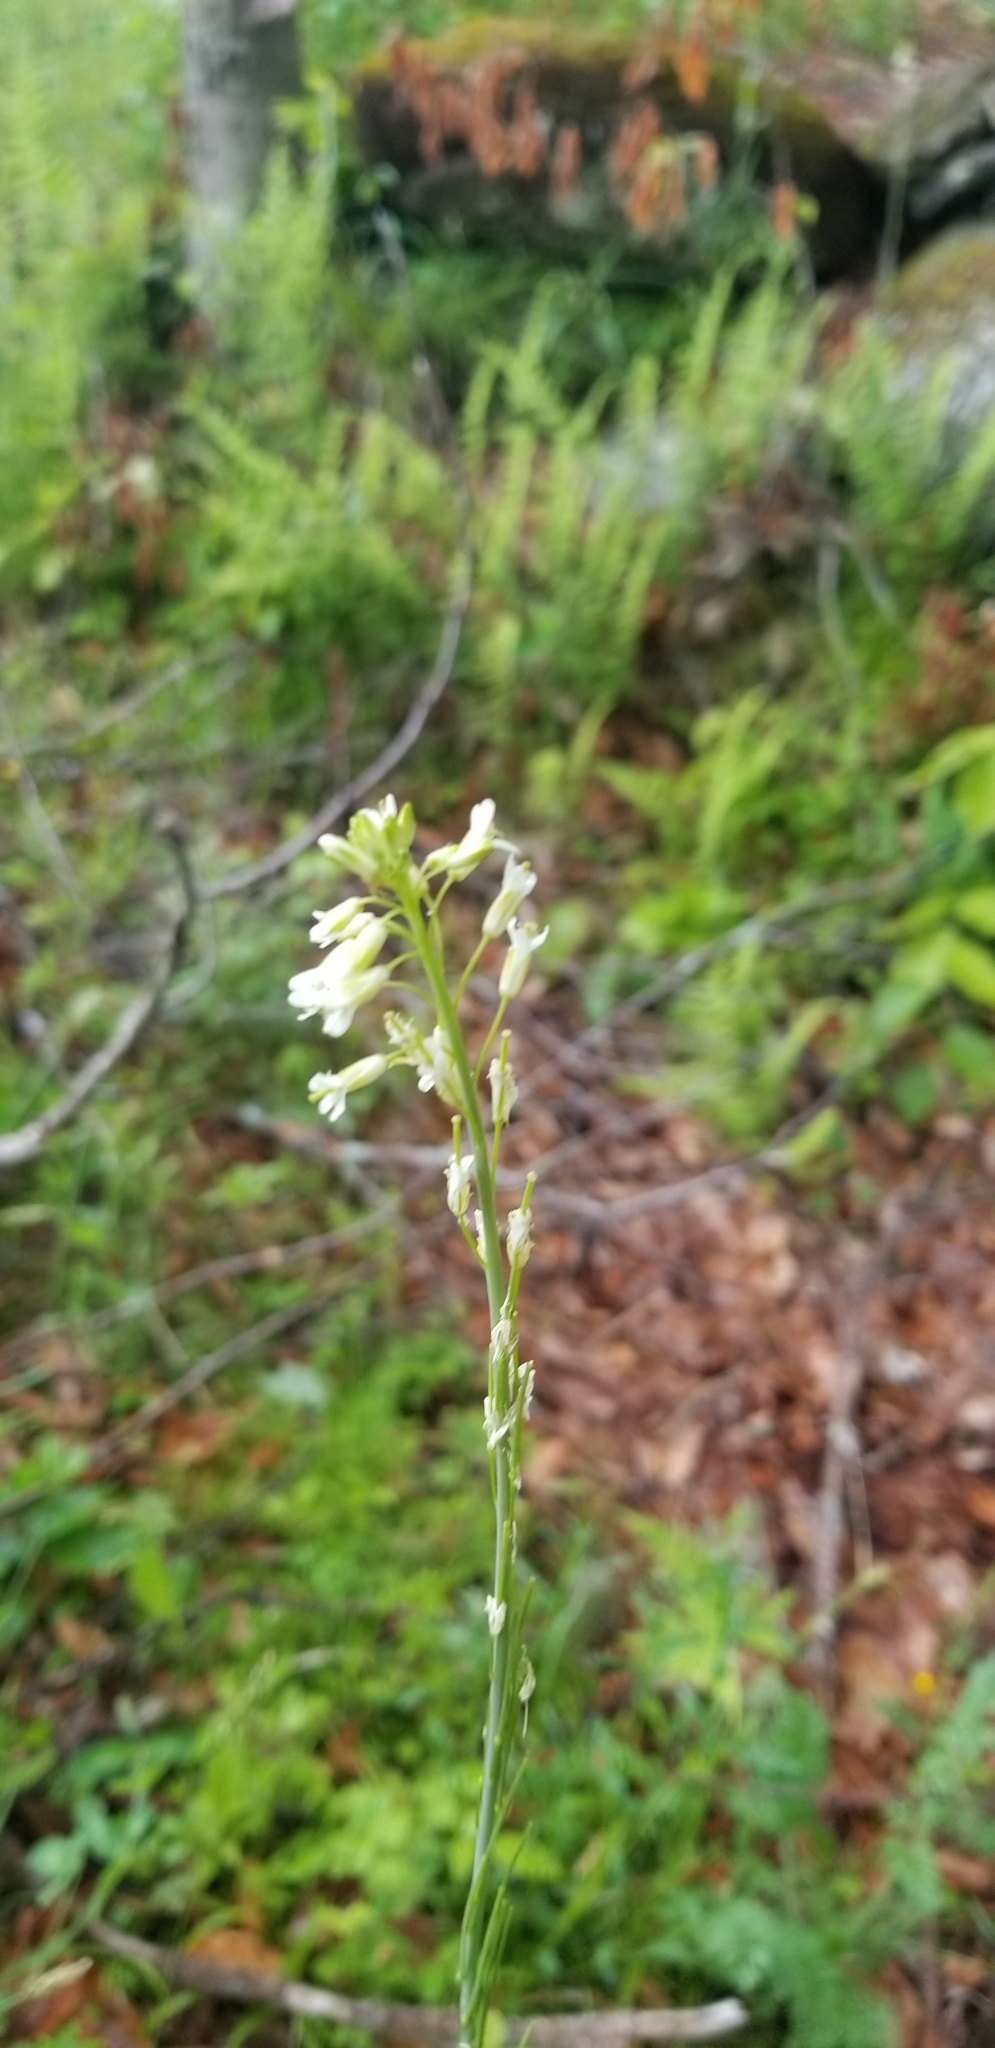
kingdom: Plantae
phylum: Tracheophyta
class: Magnoliopsida
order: Brassicales
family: Brassicaceae
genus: Turritis
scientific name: Turritis glabra
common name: Tower rockcress
